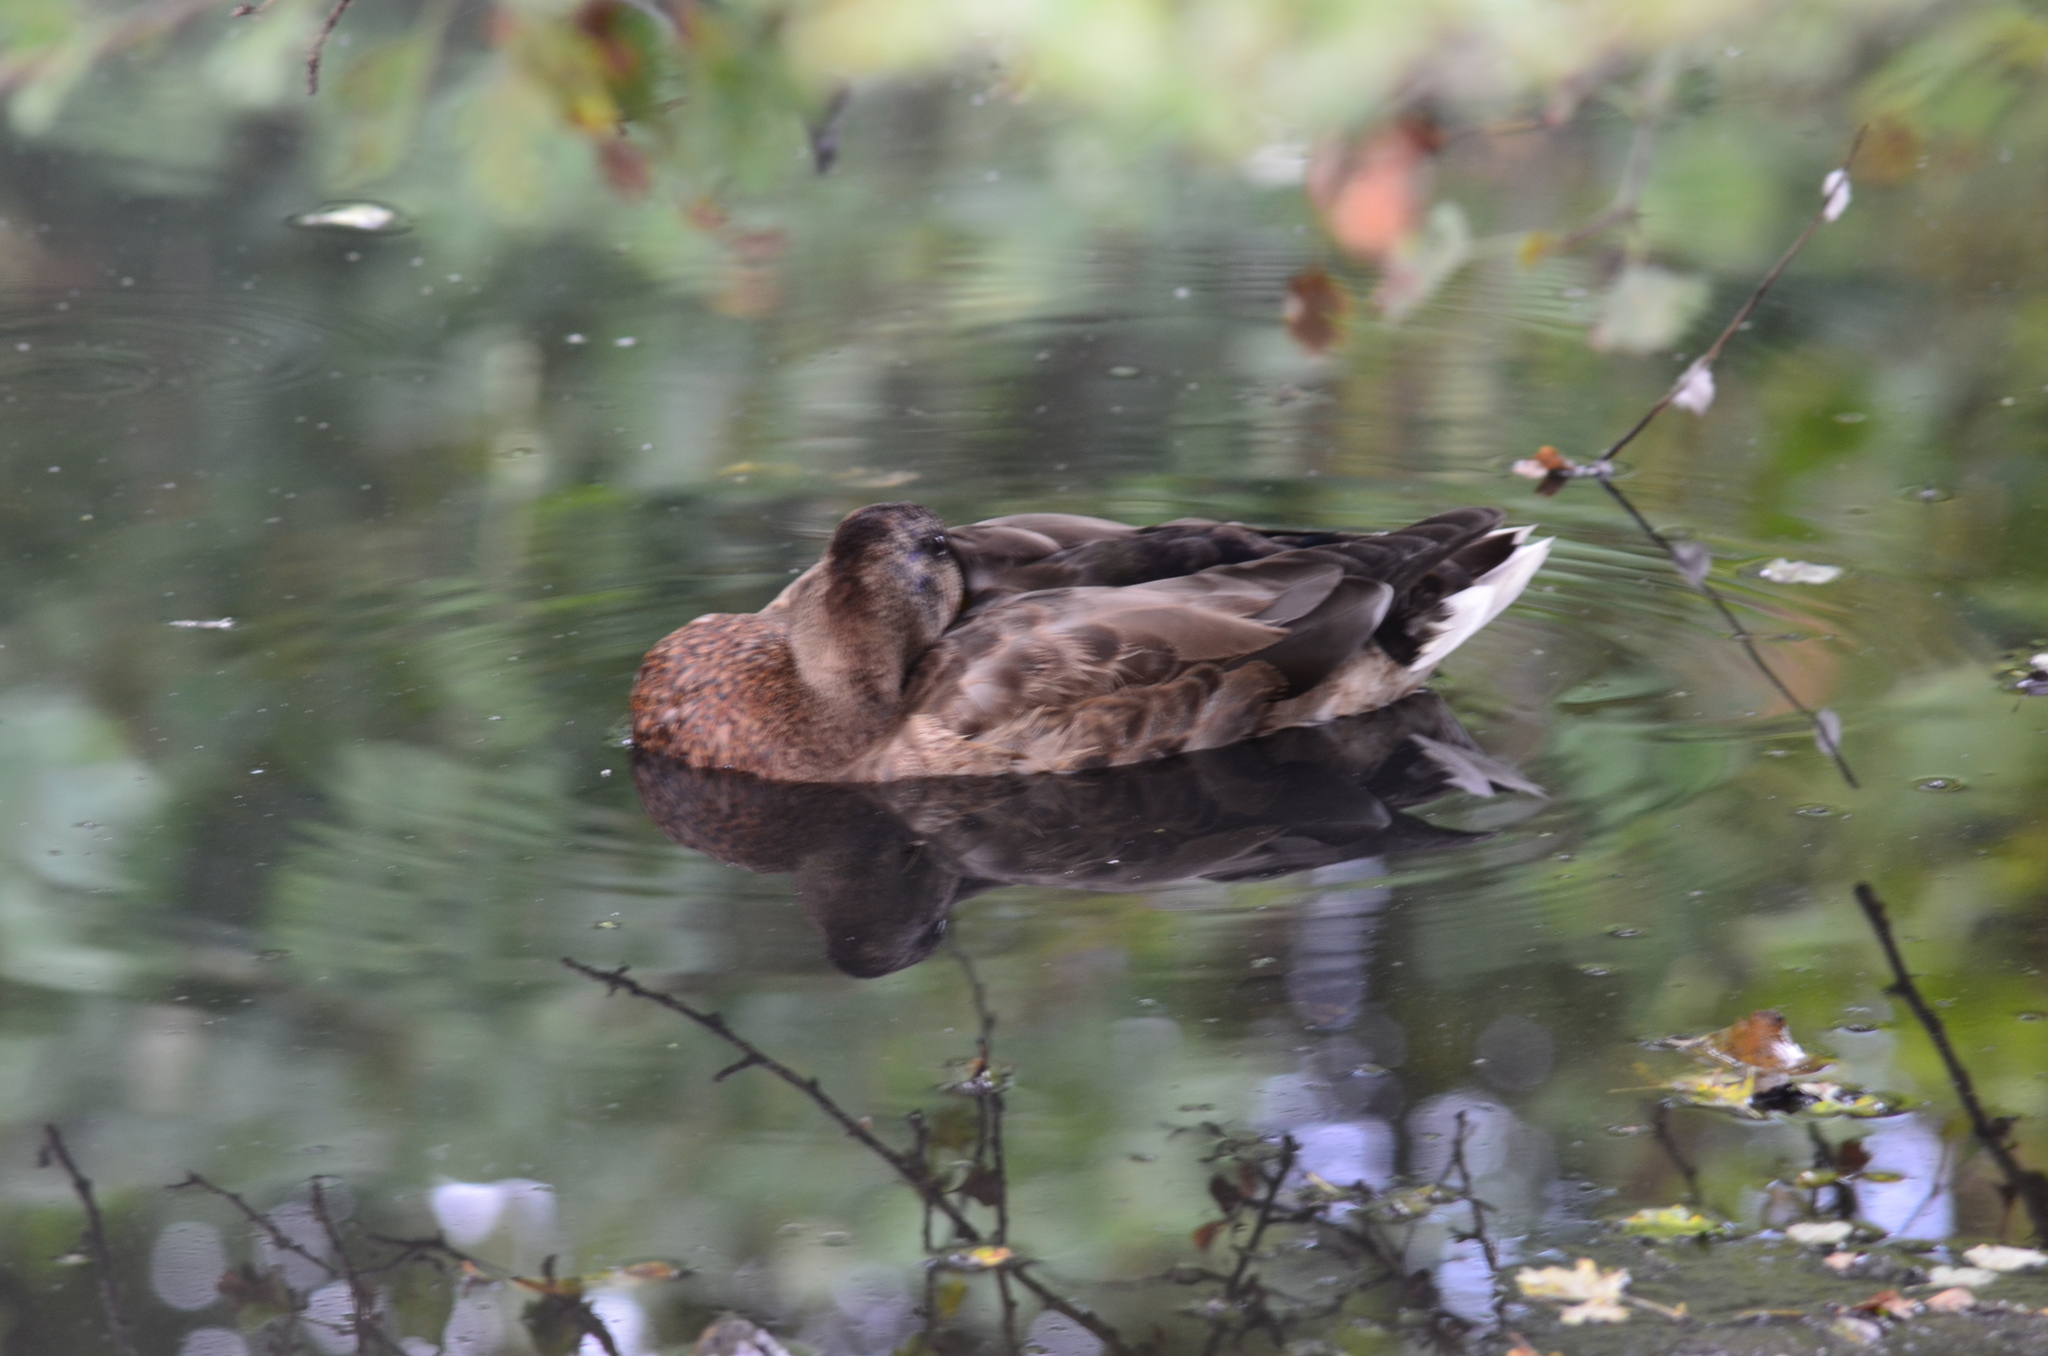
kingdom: Animalia
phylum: Chordata
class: Aves
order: Anseriformes
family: Anatidae
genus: Anas
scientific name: Anas platyrhynchos
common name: Mallard
